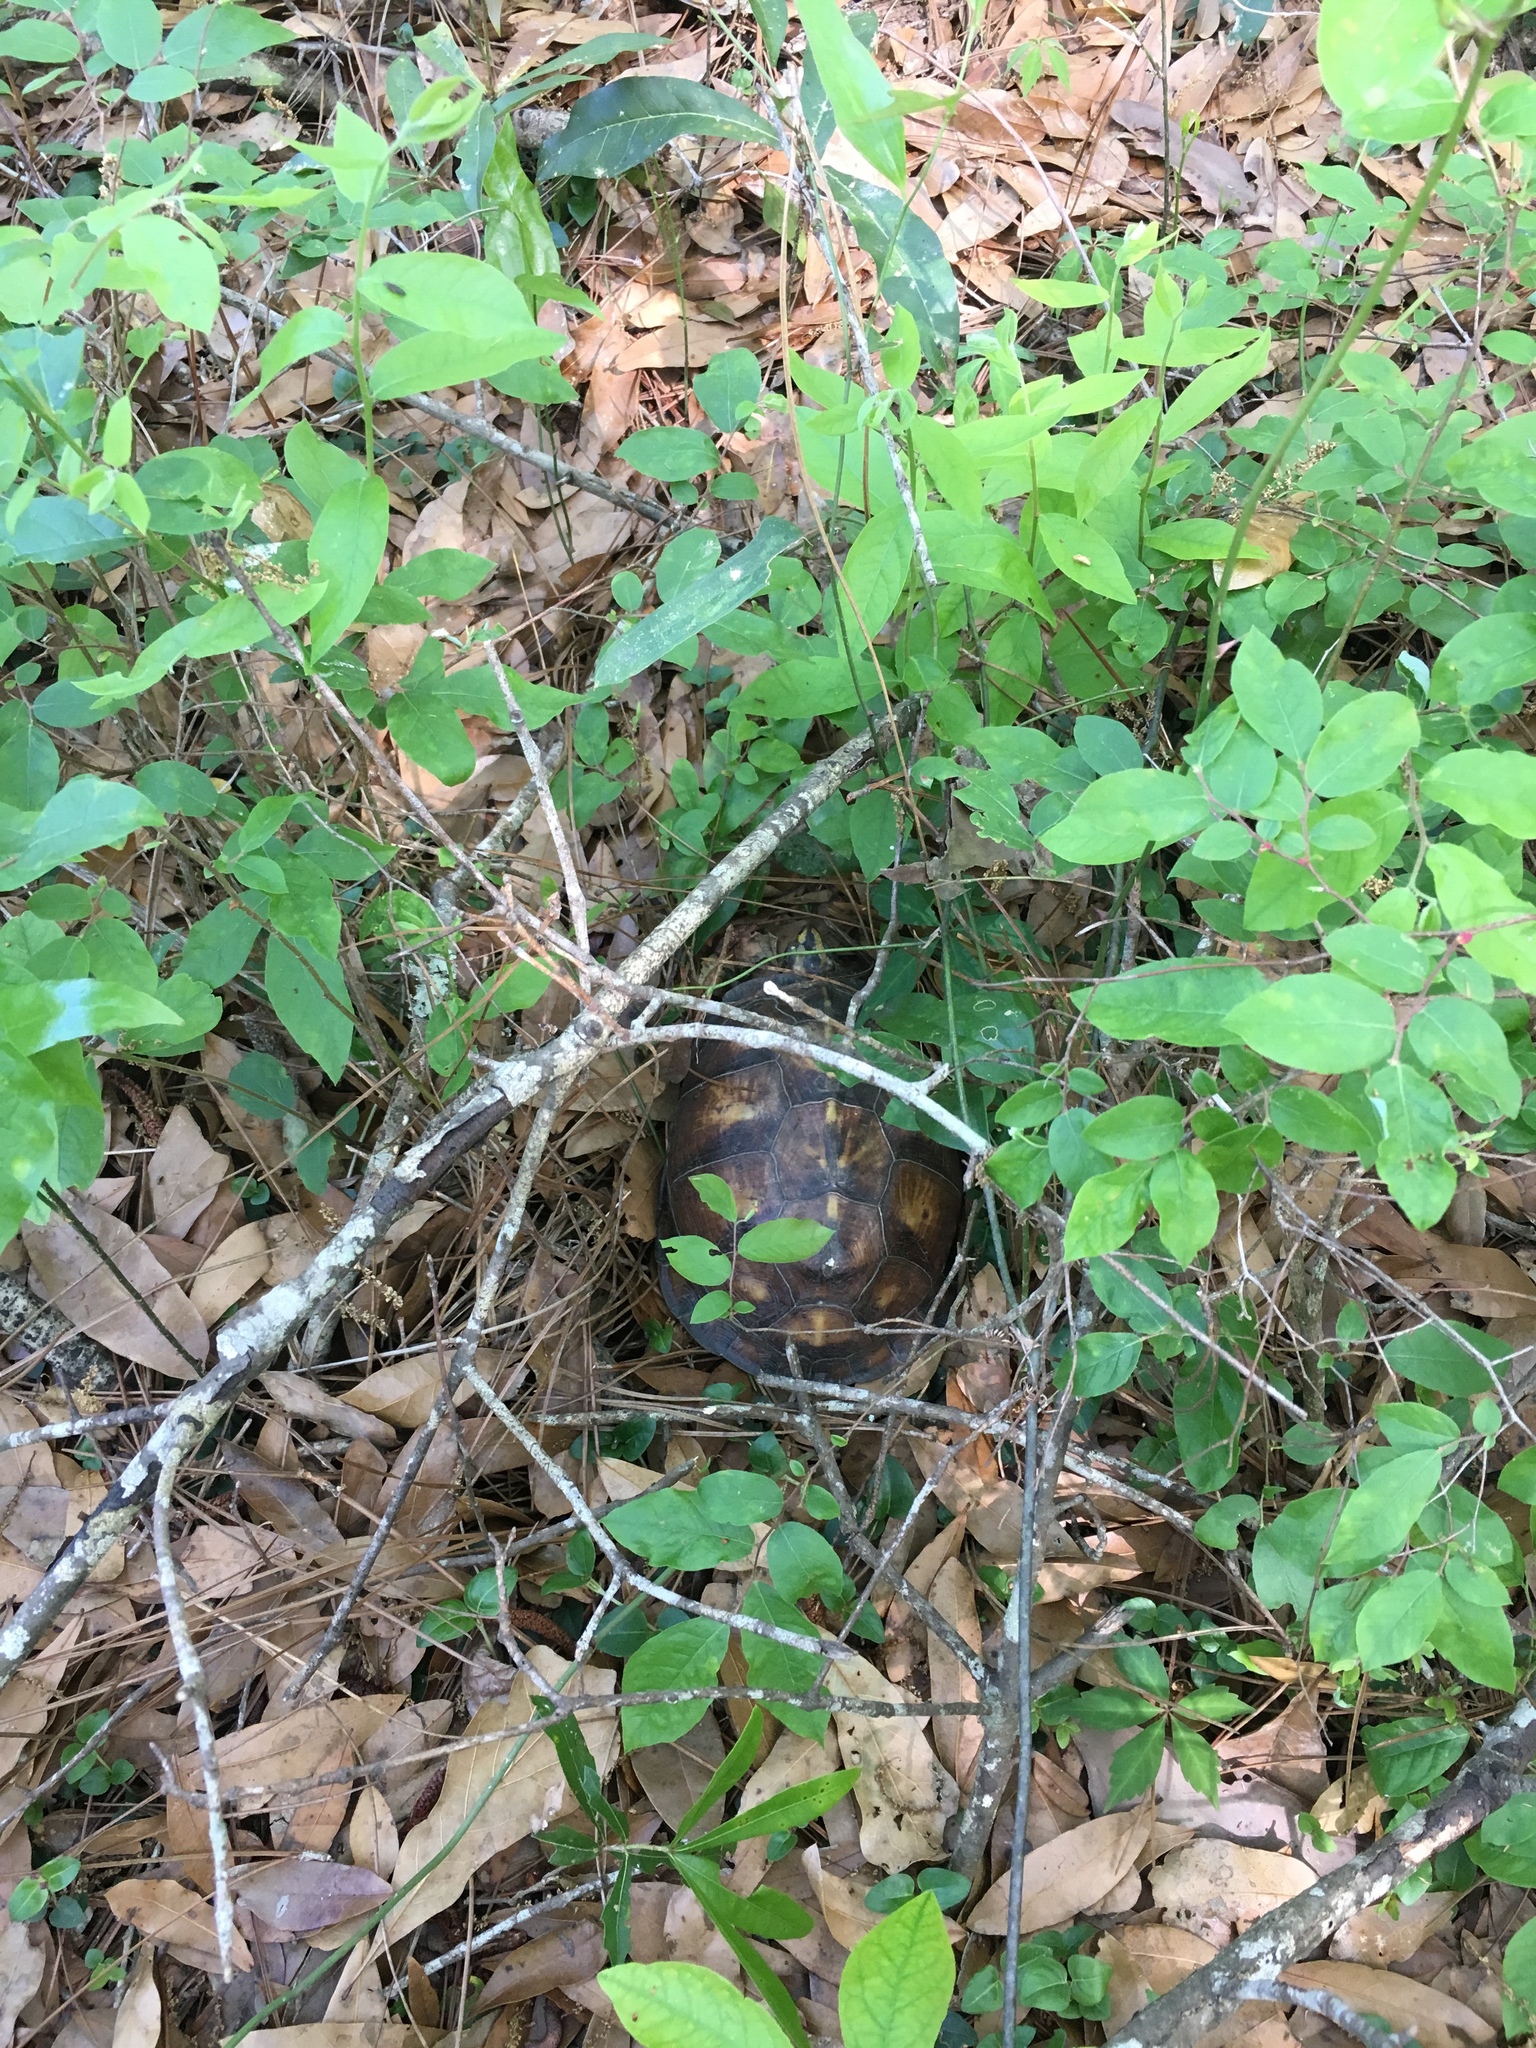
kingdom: Animalia
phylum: Chordata
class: Testudines
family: Emydidae
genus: Terrapene
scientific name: Terrapene carolina
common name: Common box turtle
